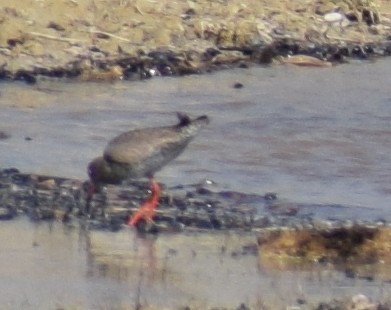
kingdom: Animalia
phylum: Chordata
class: Aves
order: Charadriiformes
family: Scolopacidae
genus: Tringa
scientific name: Tringa totanus
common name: Common redshank
